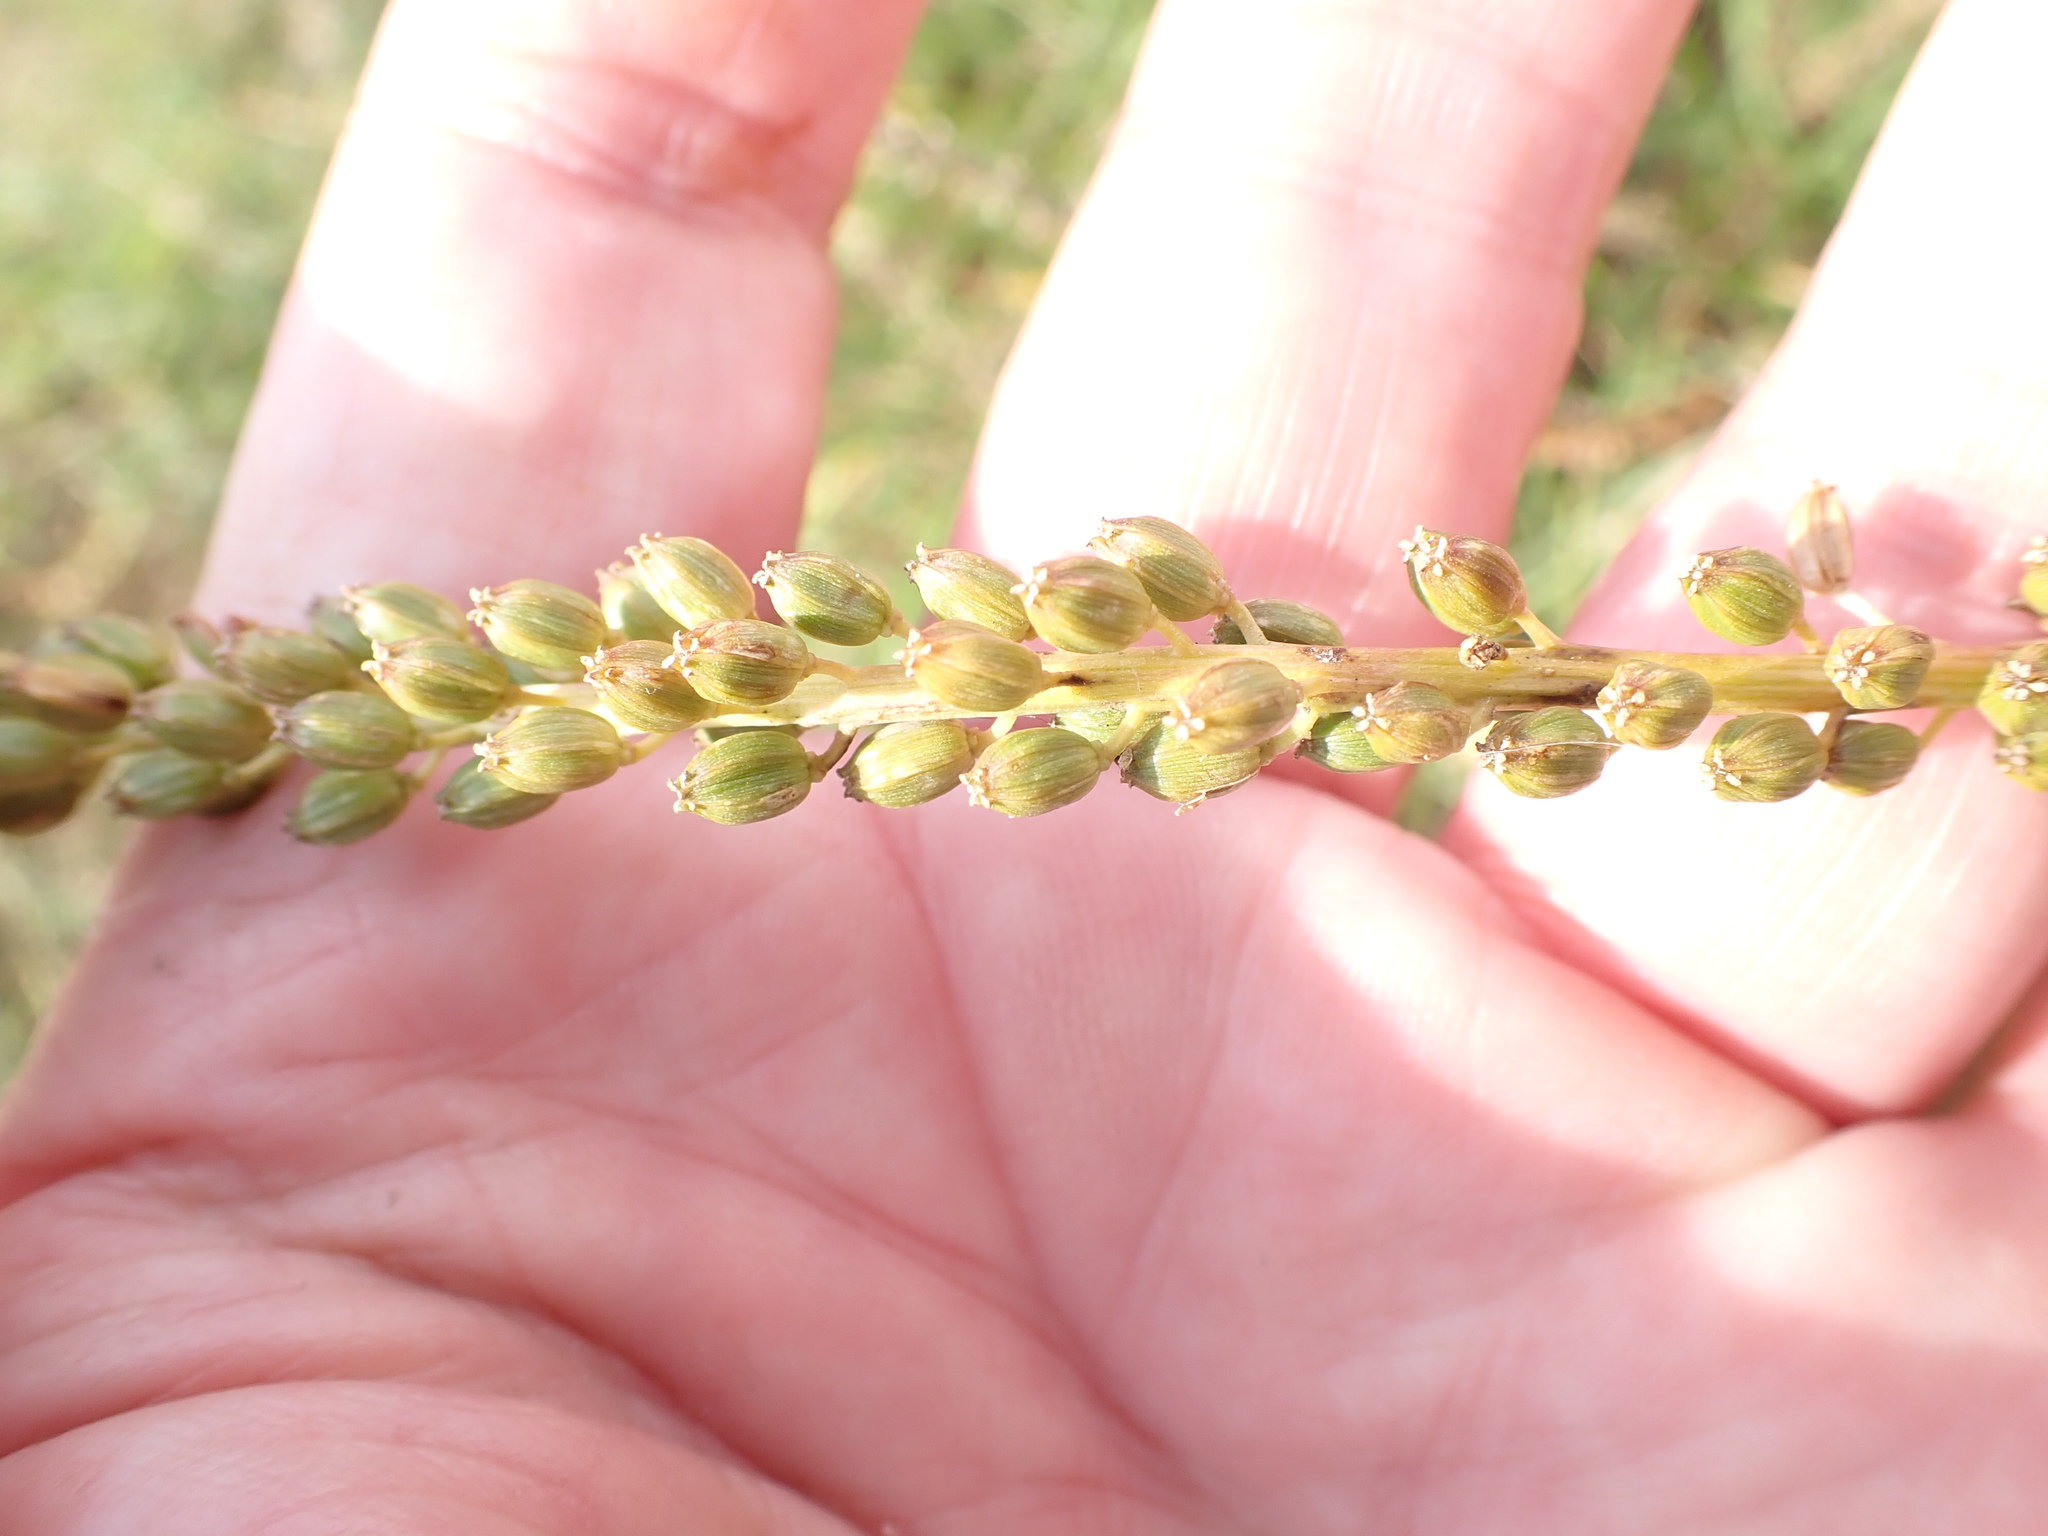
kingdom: Plantae
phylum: Tracheophyta
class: Liliopsida
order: Alismatales
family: Juncaginaceae
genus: Triglochin
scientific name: Triglochin maritima
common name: Sea arrowgrass
